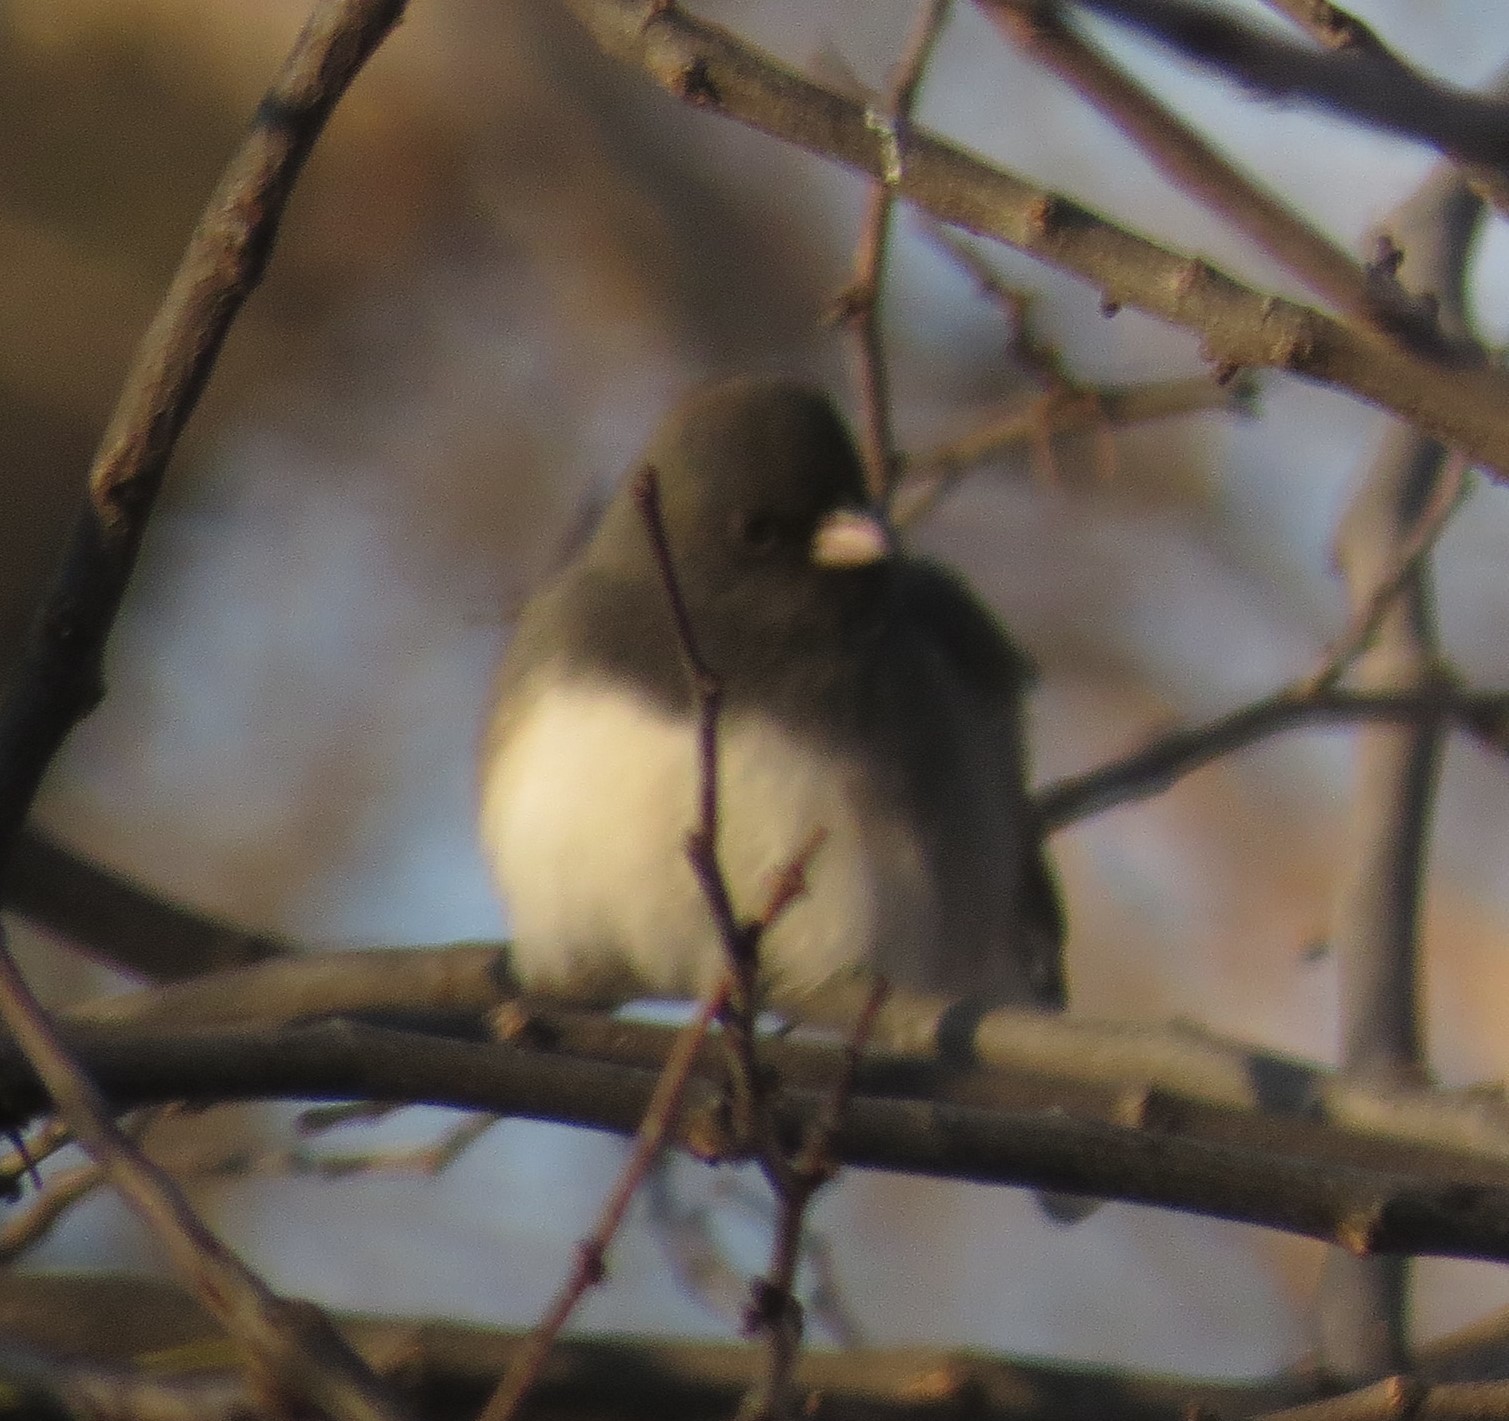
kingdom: Animalia
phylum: Chordata
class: Aves
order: Passeriformes
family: Passerellidae
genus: Junco
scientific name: Junco hyemalis
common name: Dark-eyed junco
